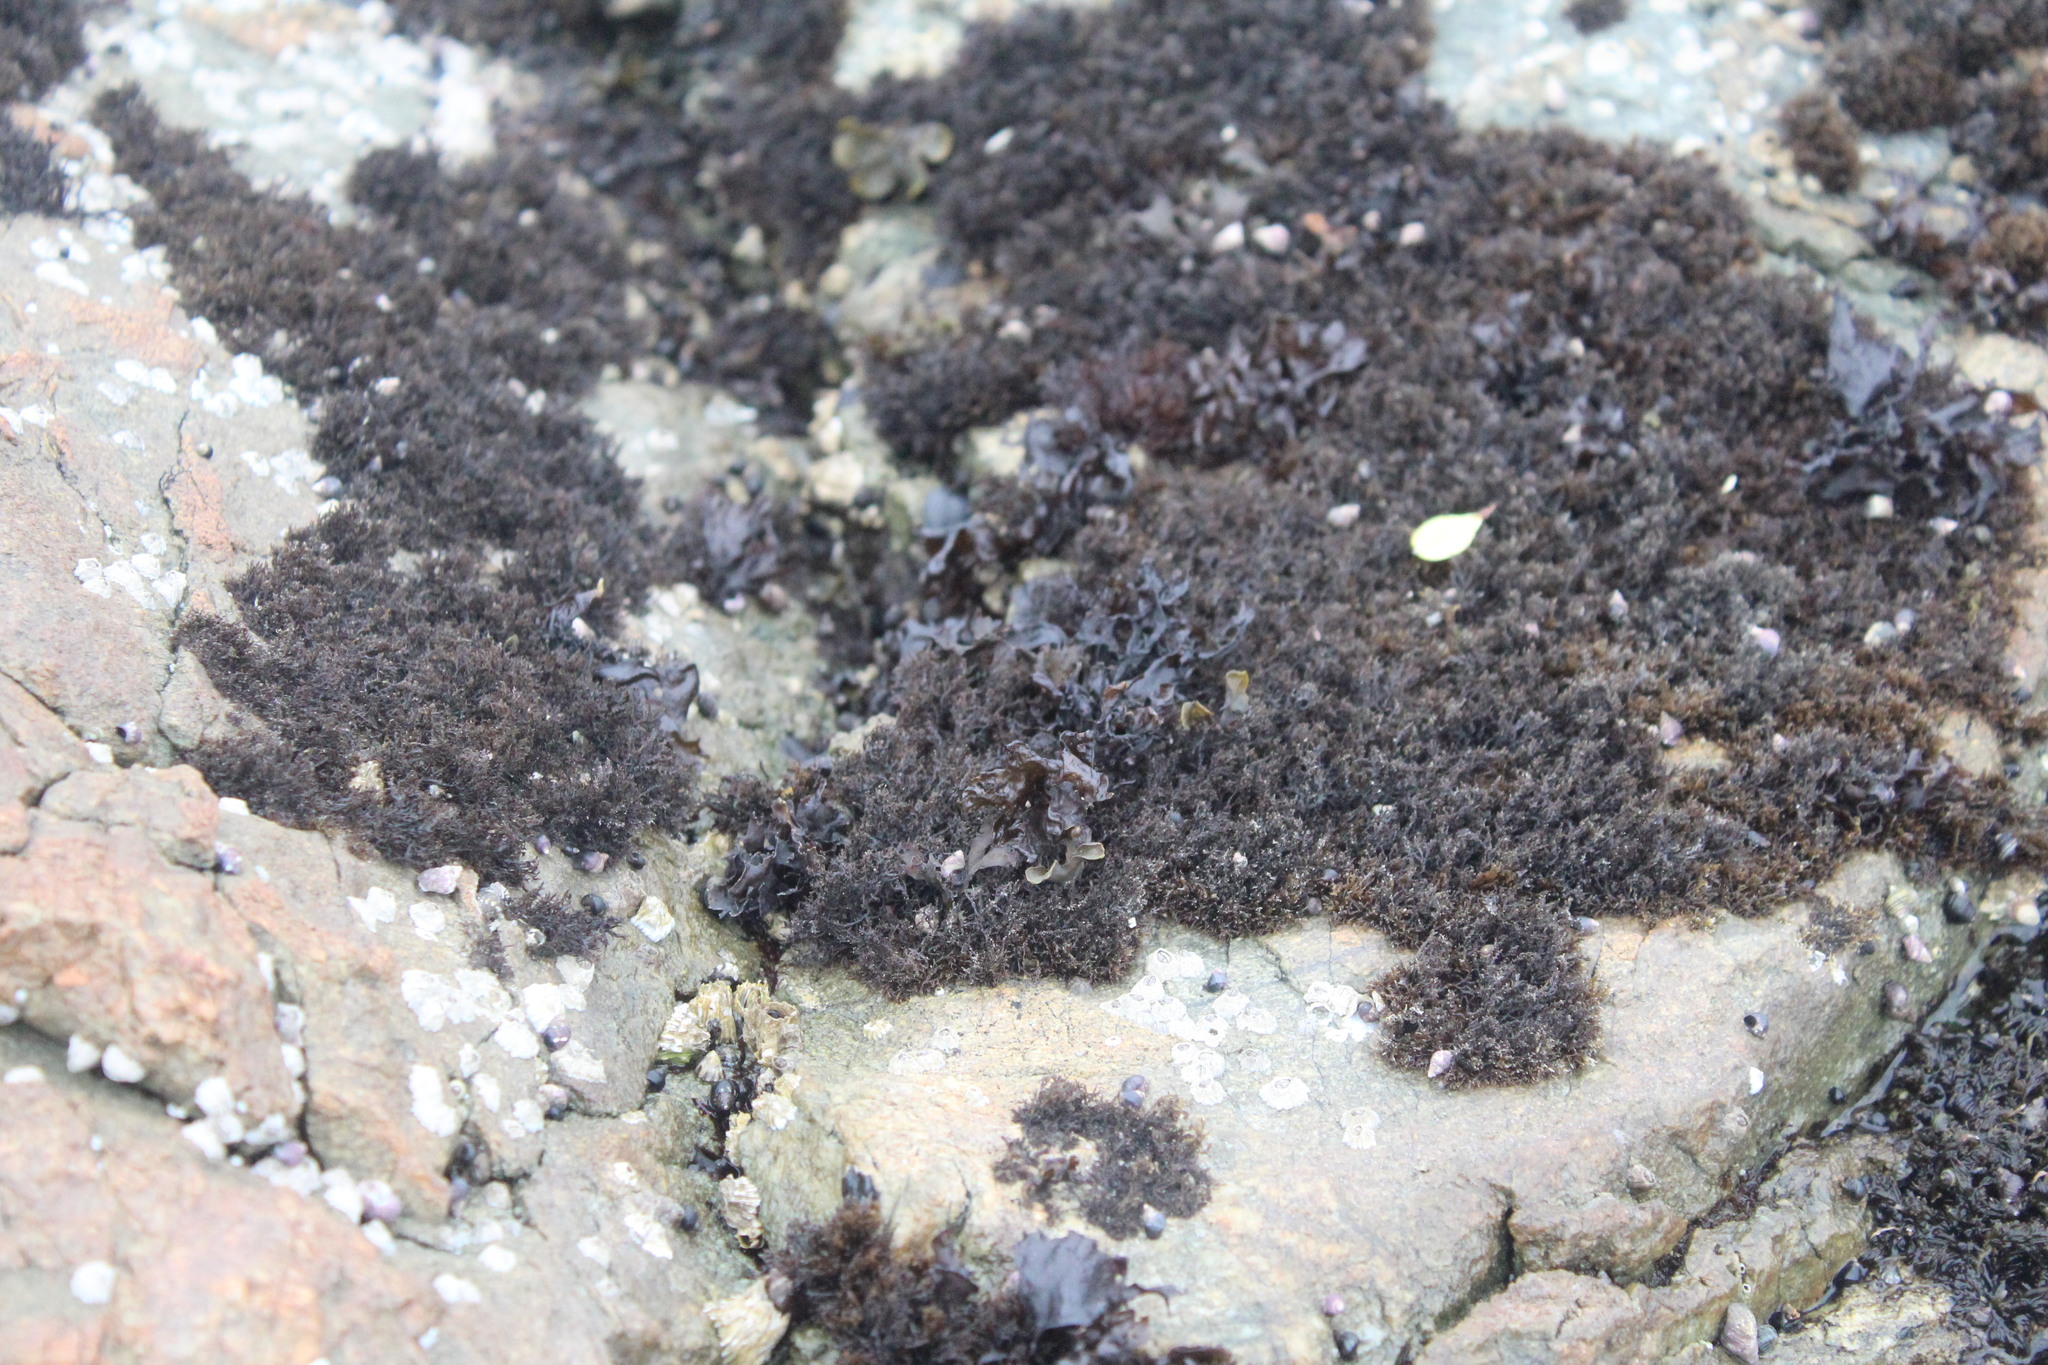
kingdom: Plantae
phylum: Rhodophyta
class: Florideophyceae
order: Gigartinales
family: Endocladiaceae
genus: Endocladia
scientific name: Endocladia muricata
